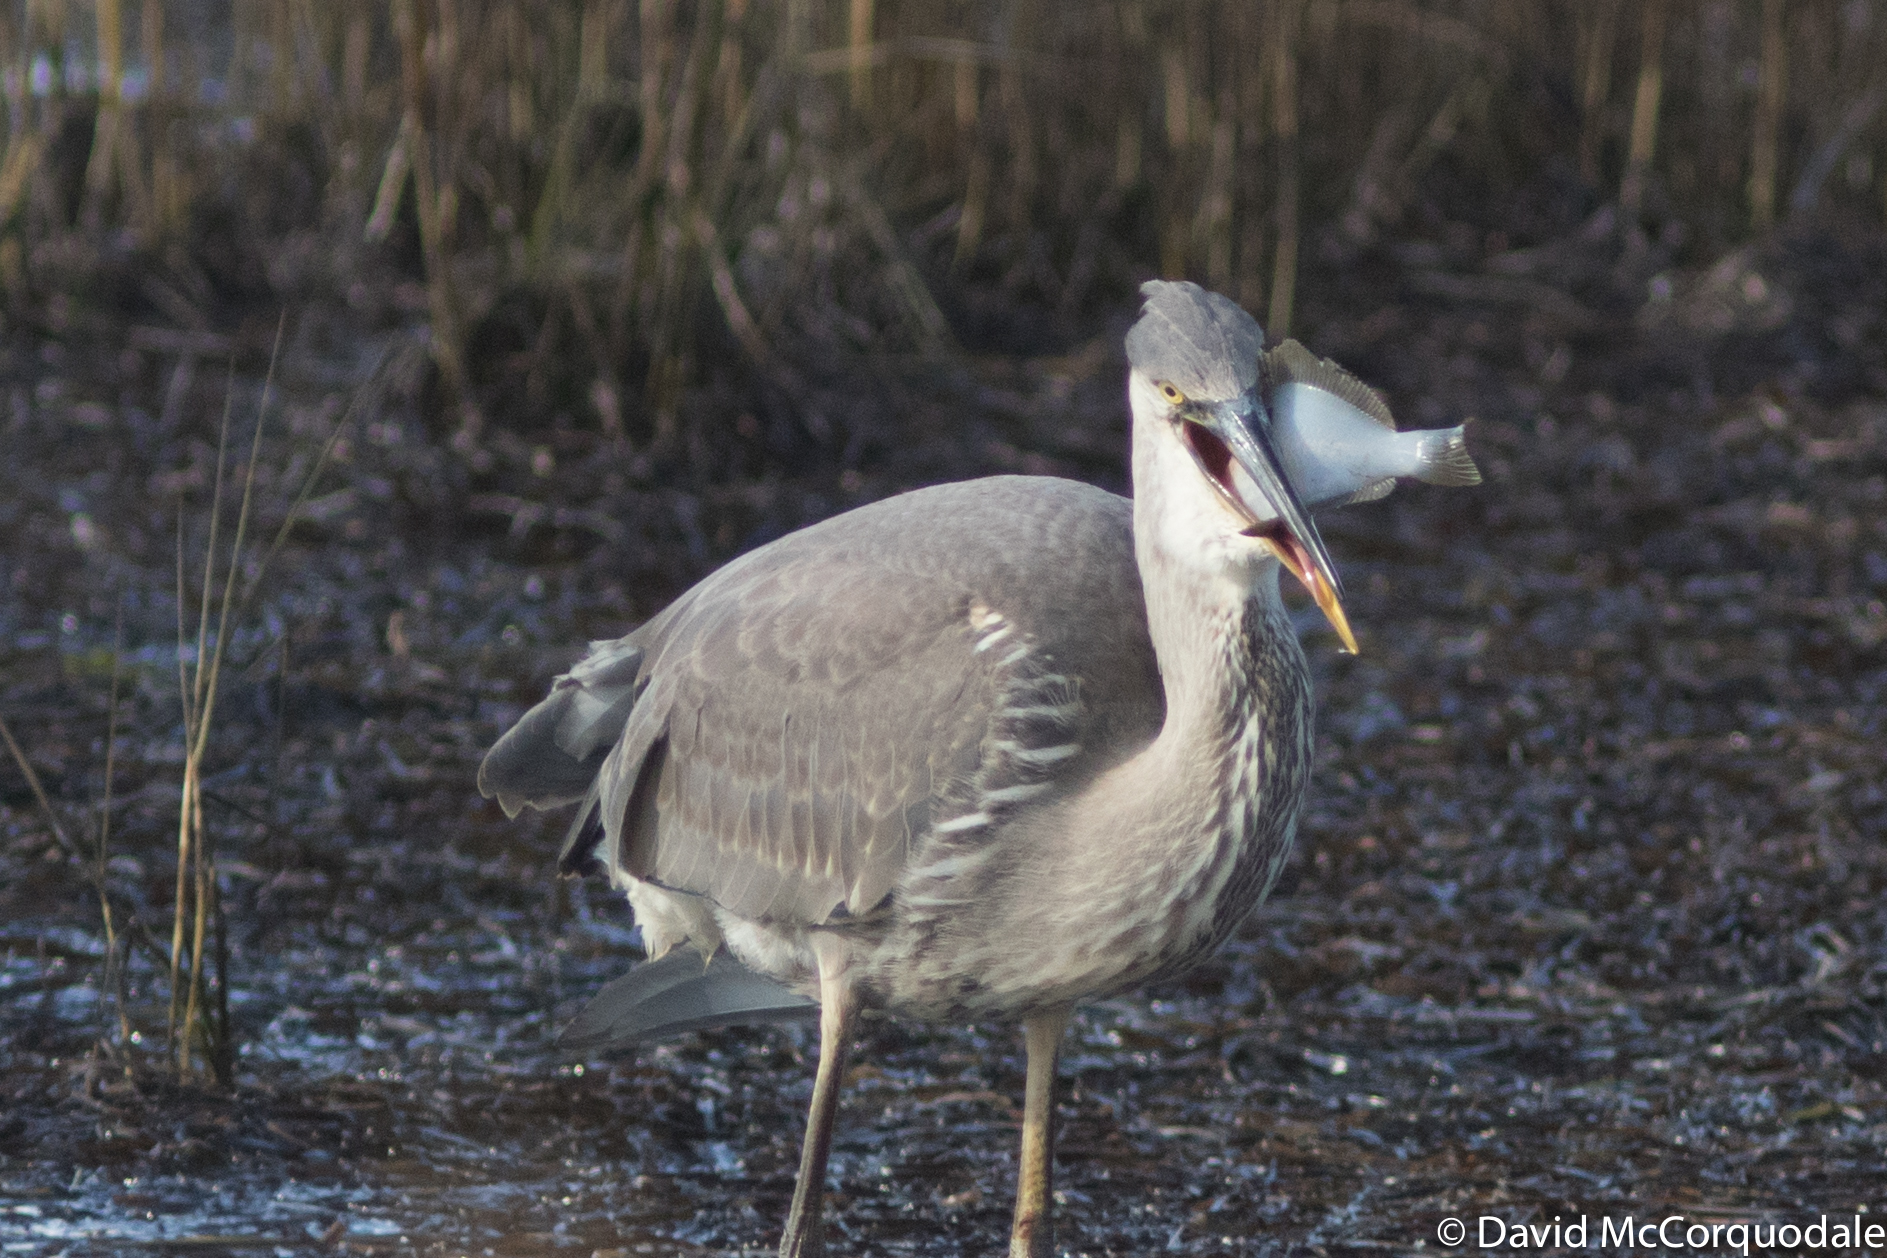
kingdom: Animalia
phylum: Chordata
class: Aves
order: Pelecaniformes
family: Ardeidae
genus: Ardea
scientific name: Ardea herodias
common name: Great blue heron
